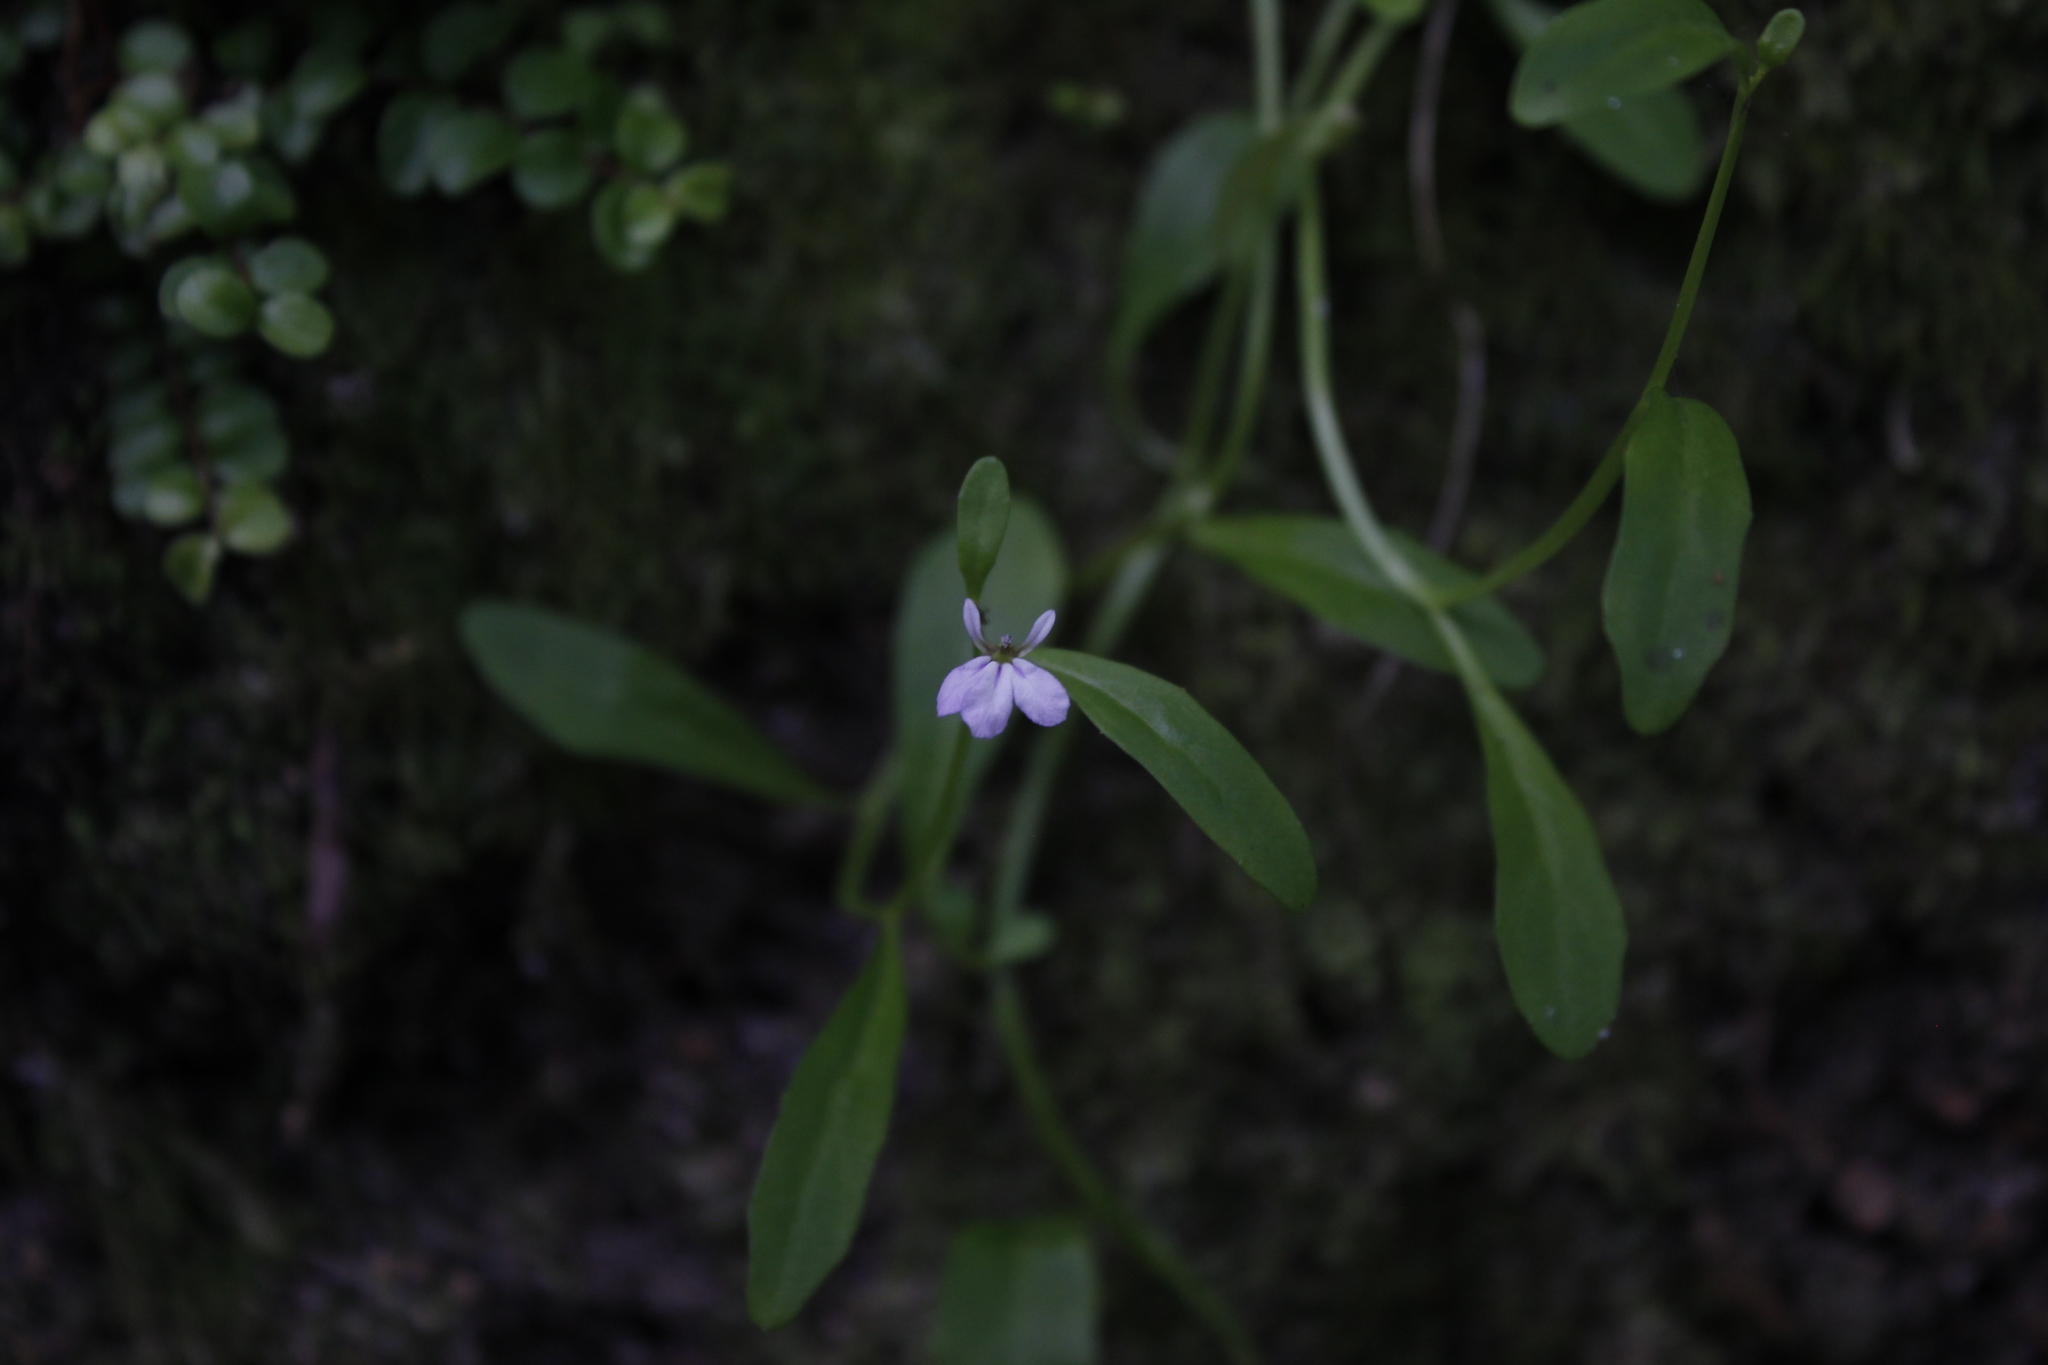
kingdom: Plantae
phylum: Tracheophyta
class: Magnoliopsida
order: Asterales
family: Campanulaceae
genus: Lobelia
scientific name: Lobelia anceps
